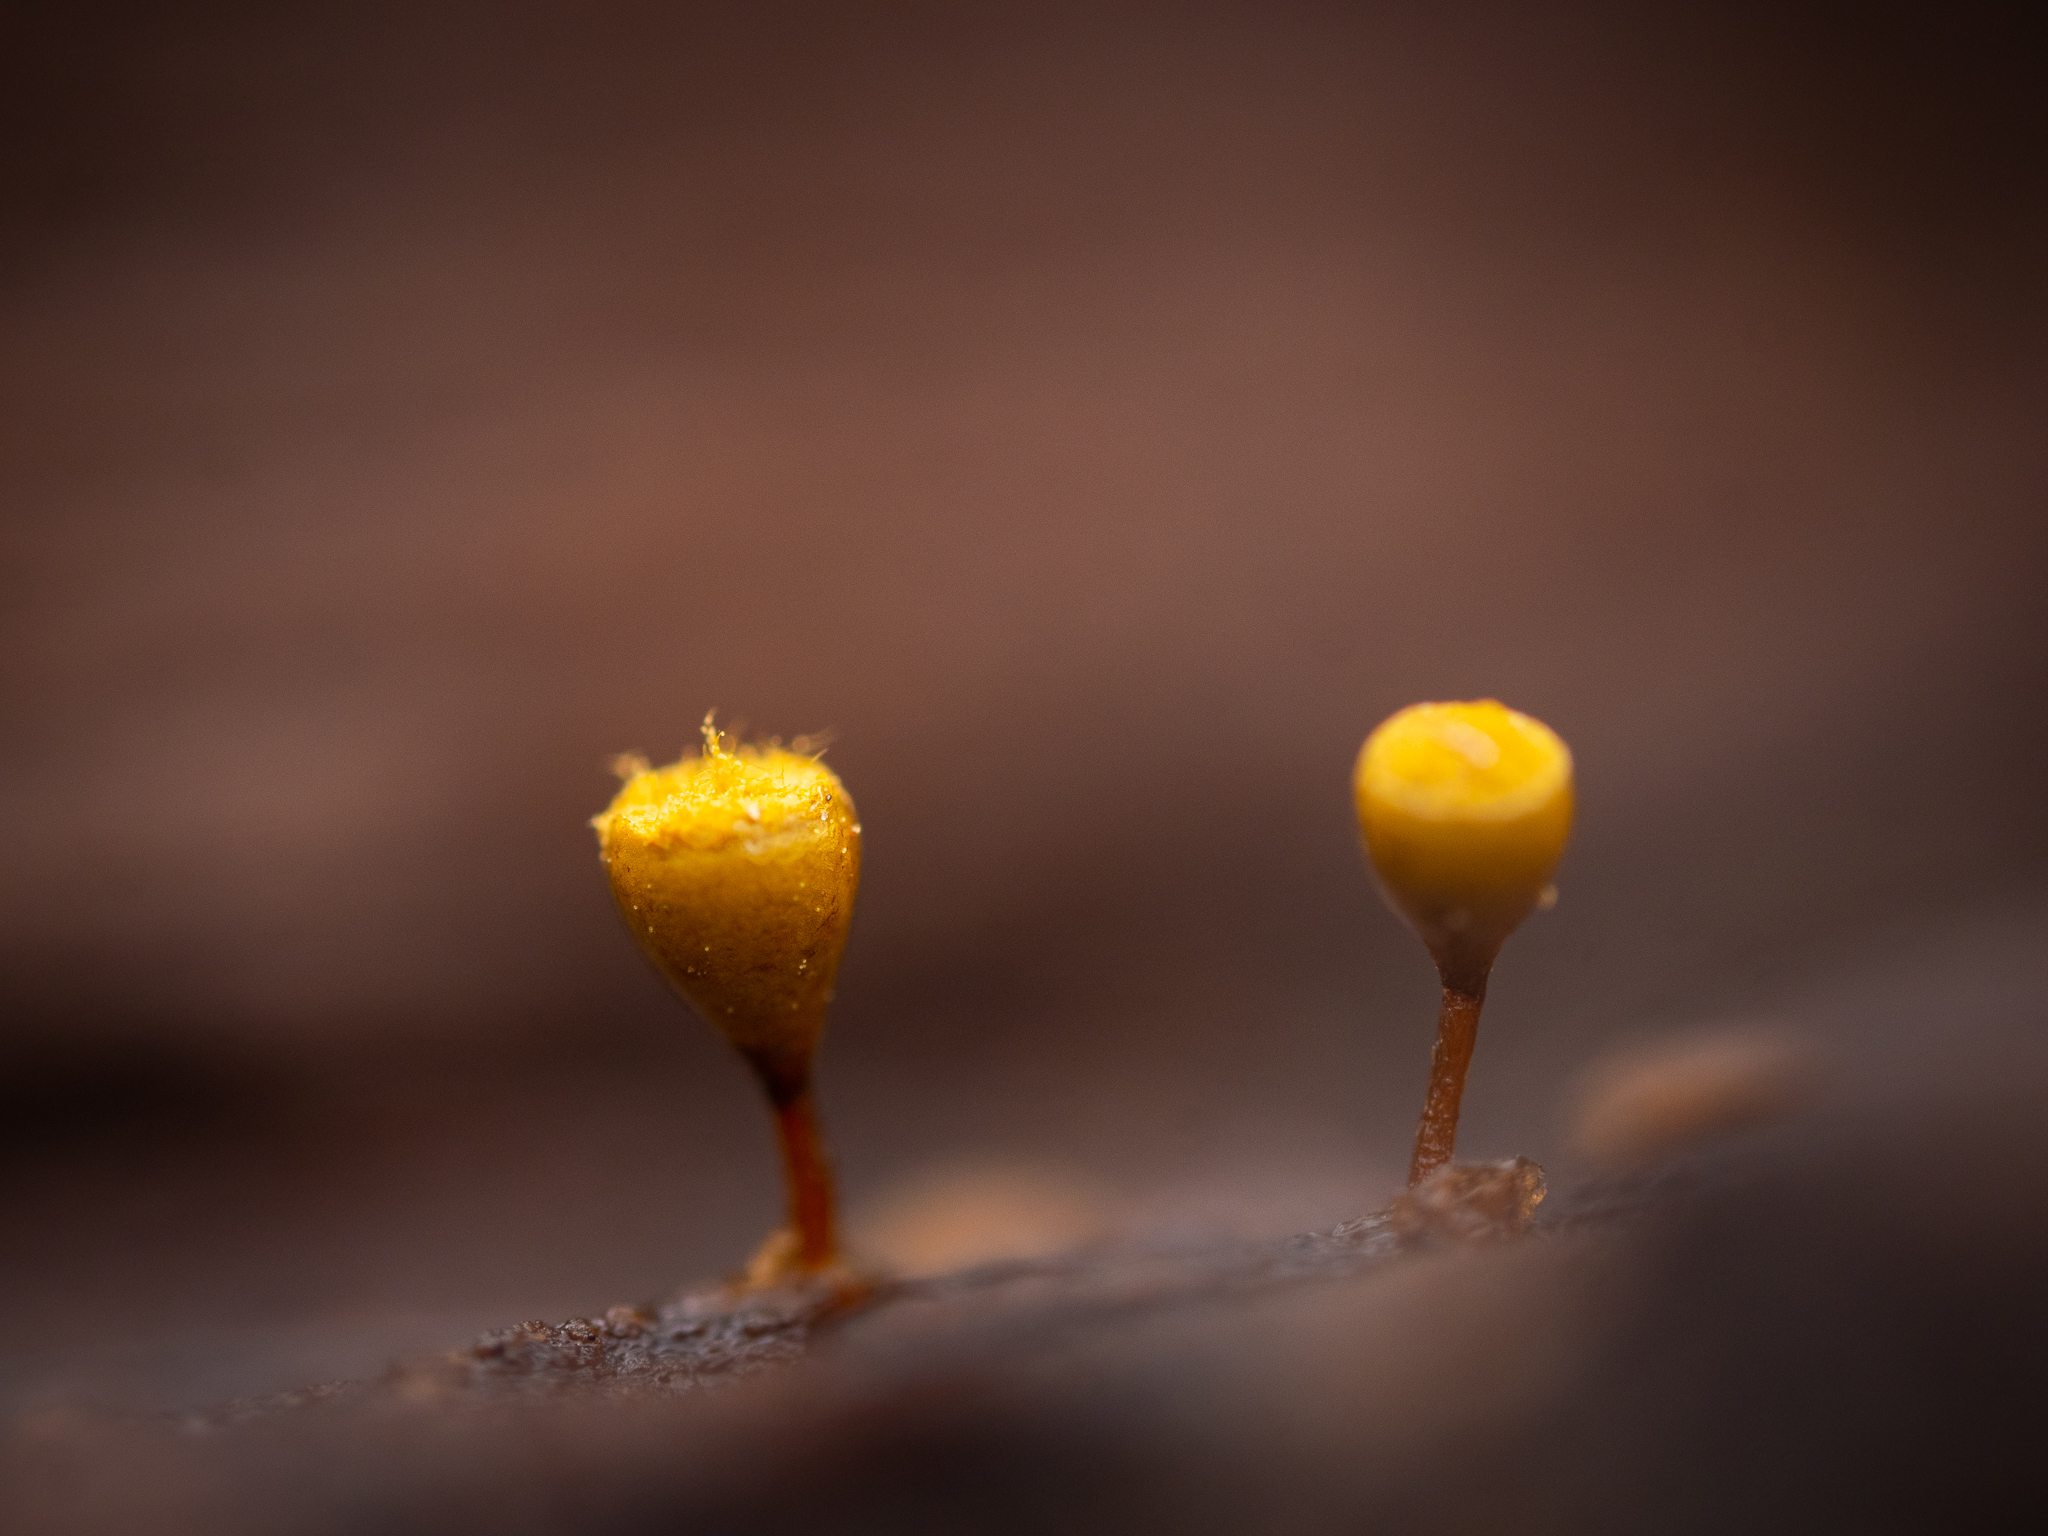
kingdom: Protozoa
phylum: Mycetozoa
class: Myxomycetes
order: Trichiales
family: Arcyriaceae
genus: Hemitrichia
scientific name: Hemitrichia decipiens
